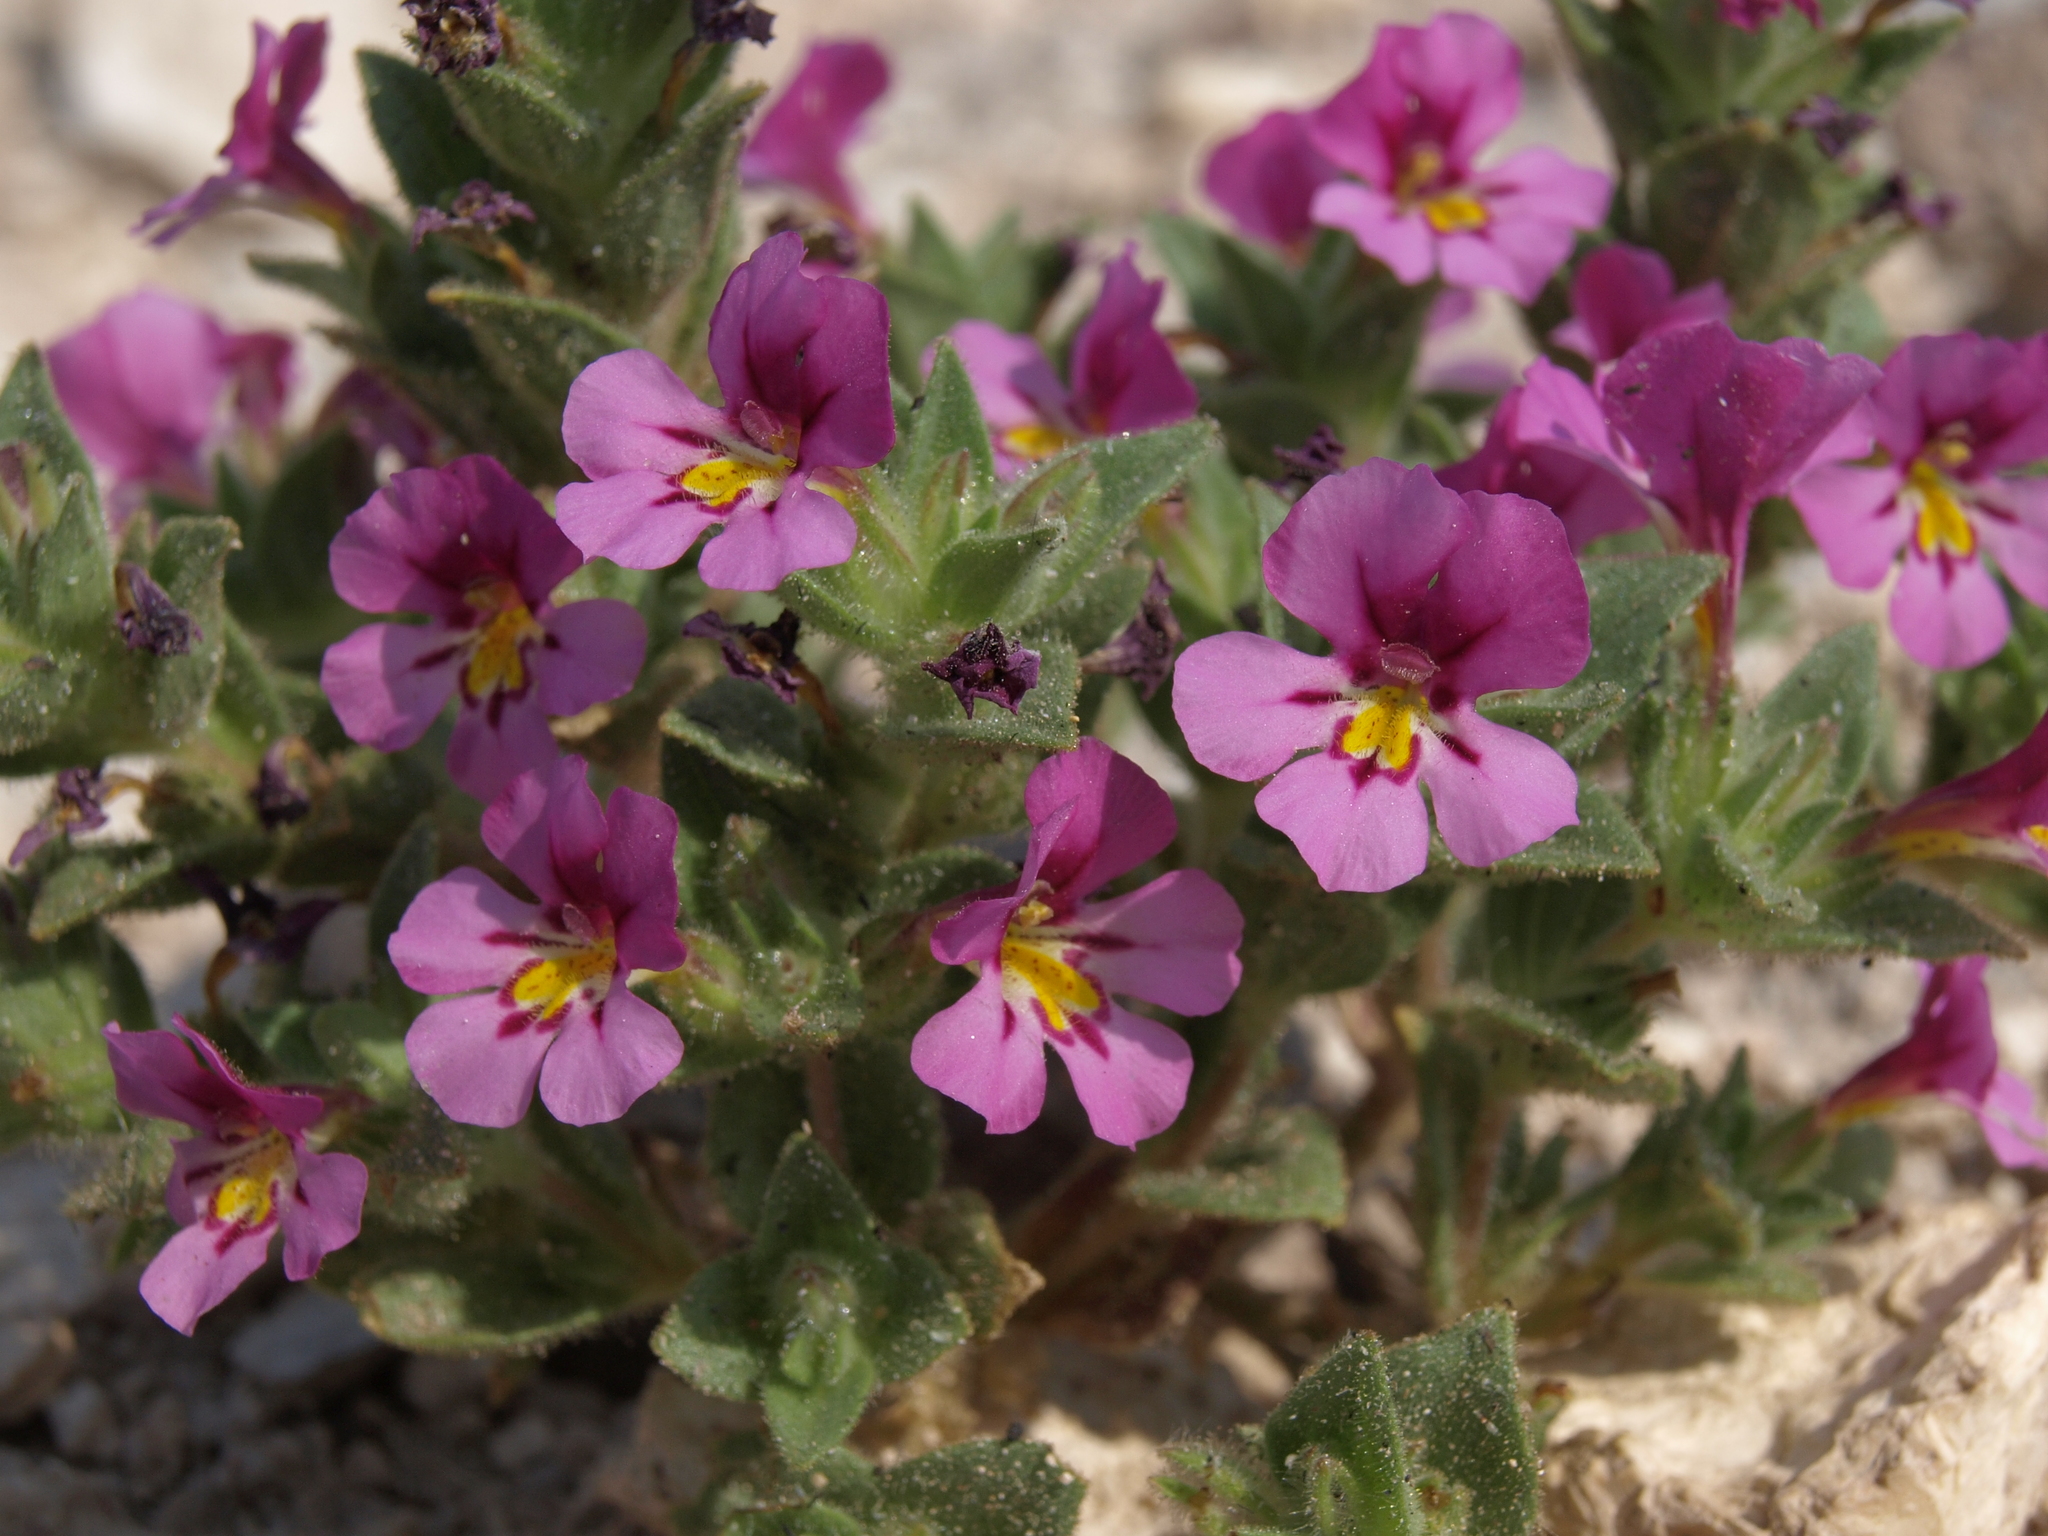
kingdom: Plantae
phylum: Tracheophyta
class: Magnoliopsida
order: Lamiales
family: Phrymaceae
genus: Diplacus
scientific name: Diplacus ovatus
